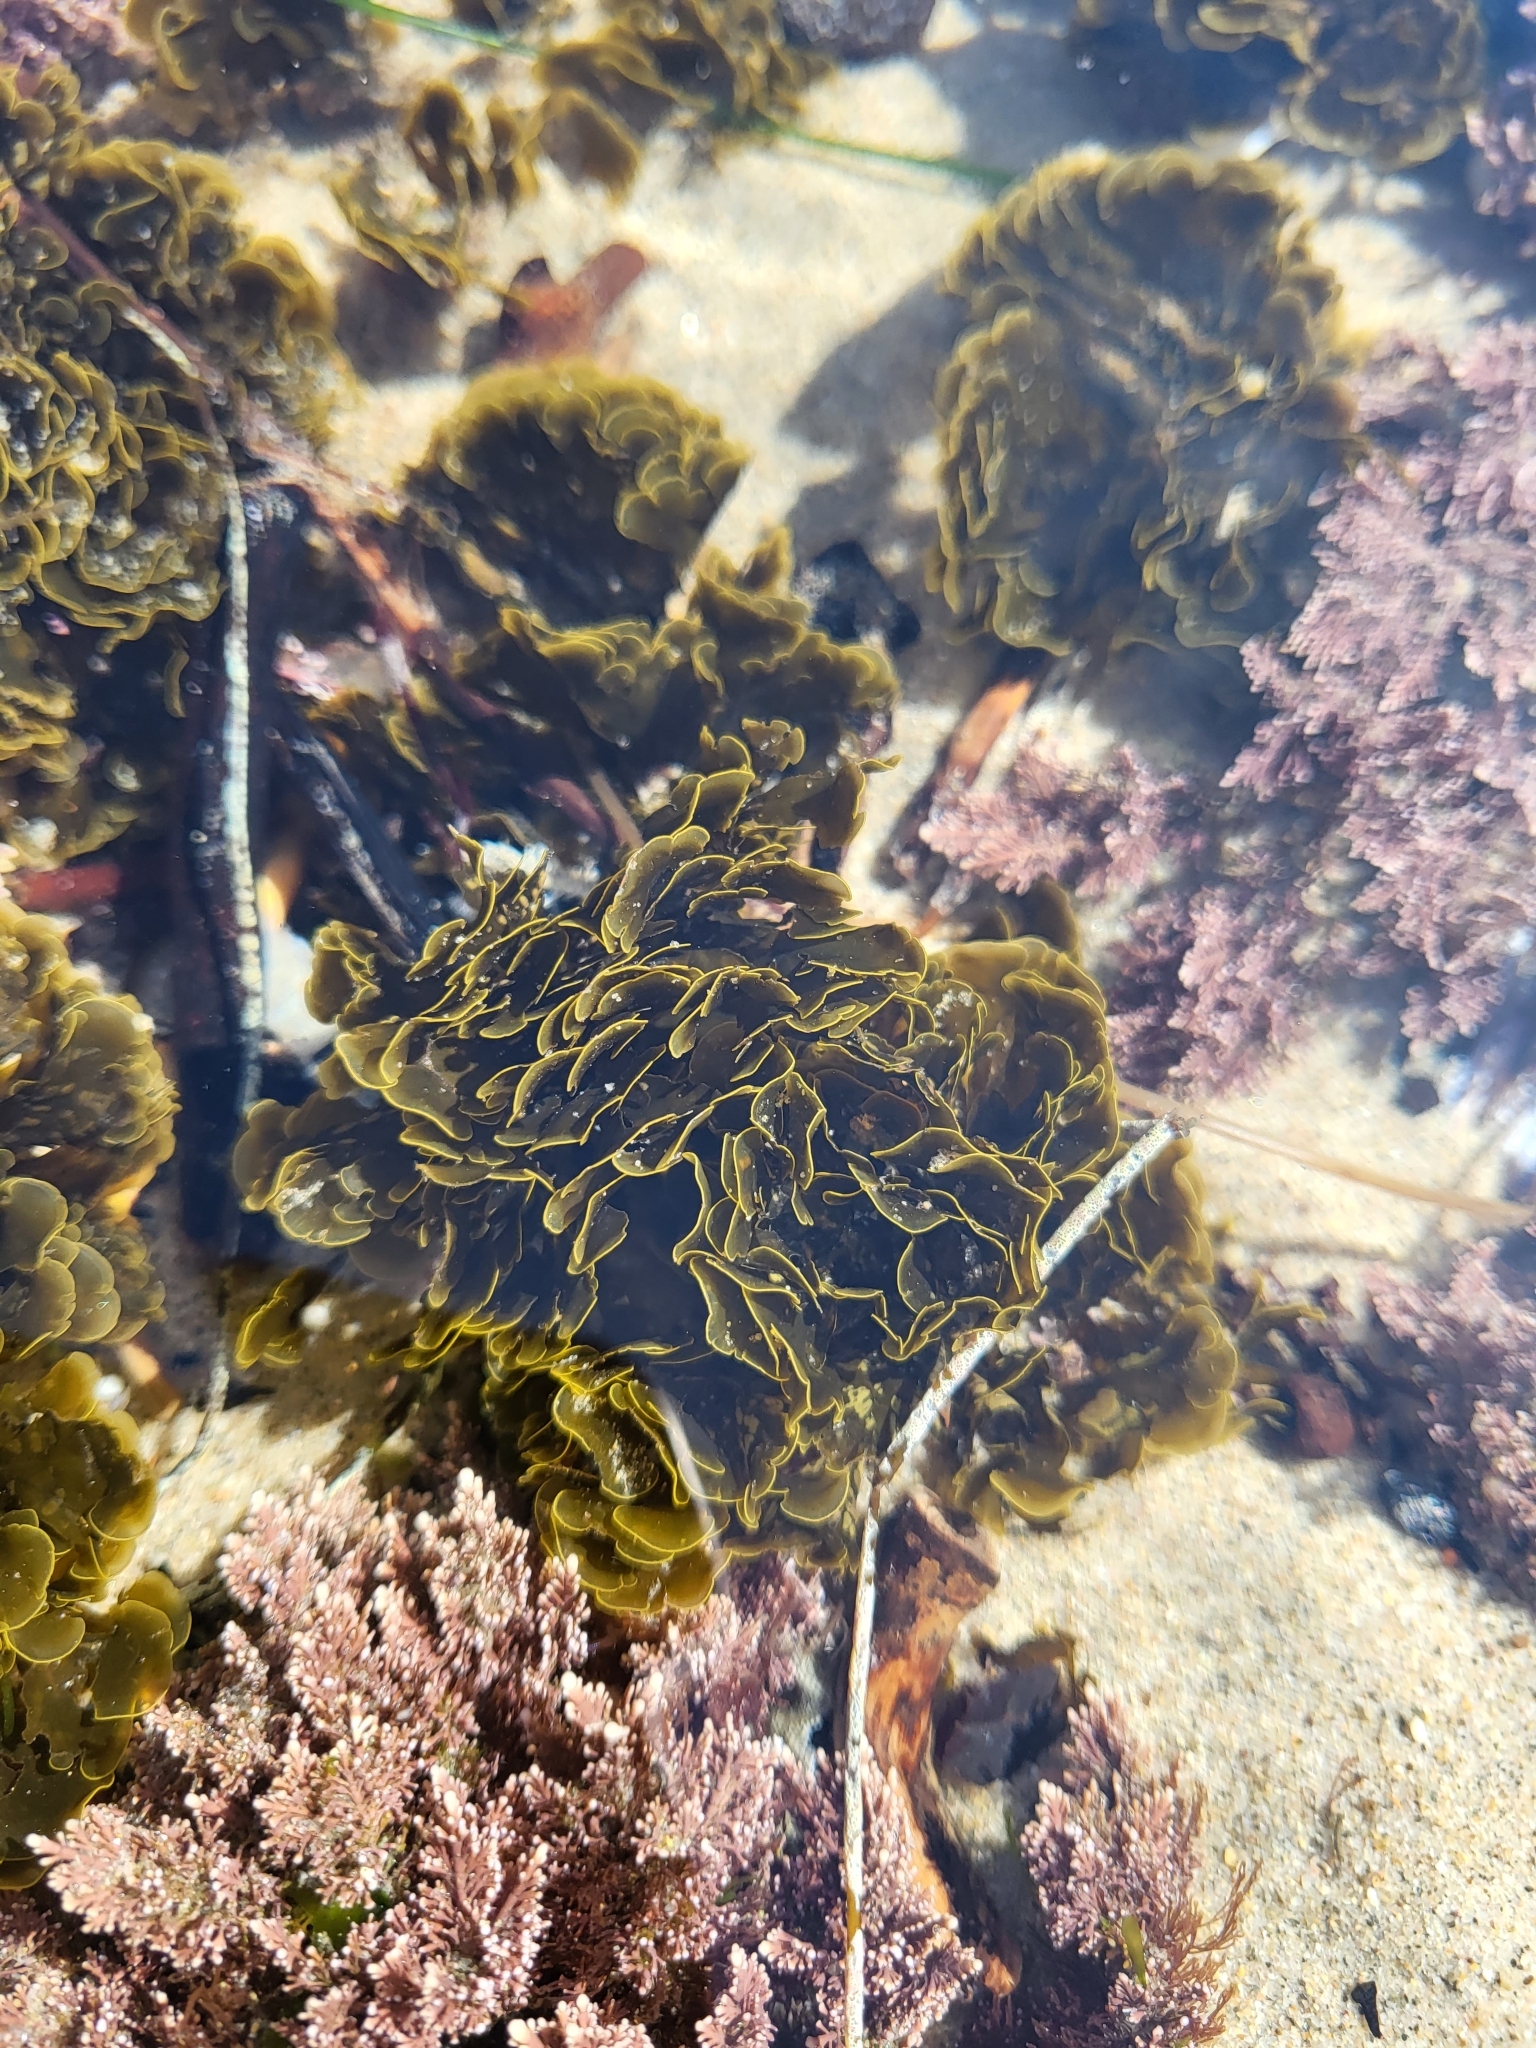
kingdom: Chromista
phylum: Ochrophyta
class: Phaeophyceae
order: Dictyotales
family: Dictyotaceae
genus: Zonaria
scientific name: Zonaria farlowii
